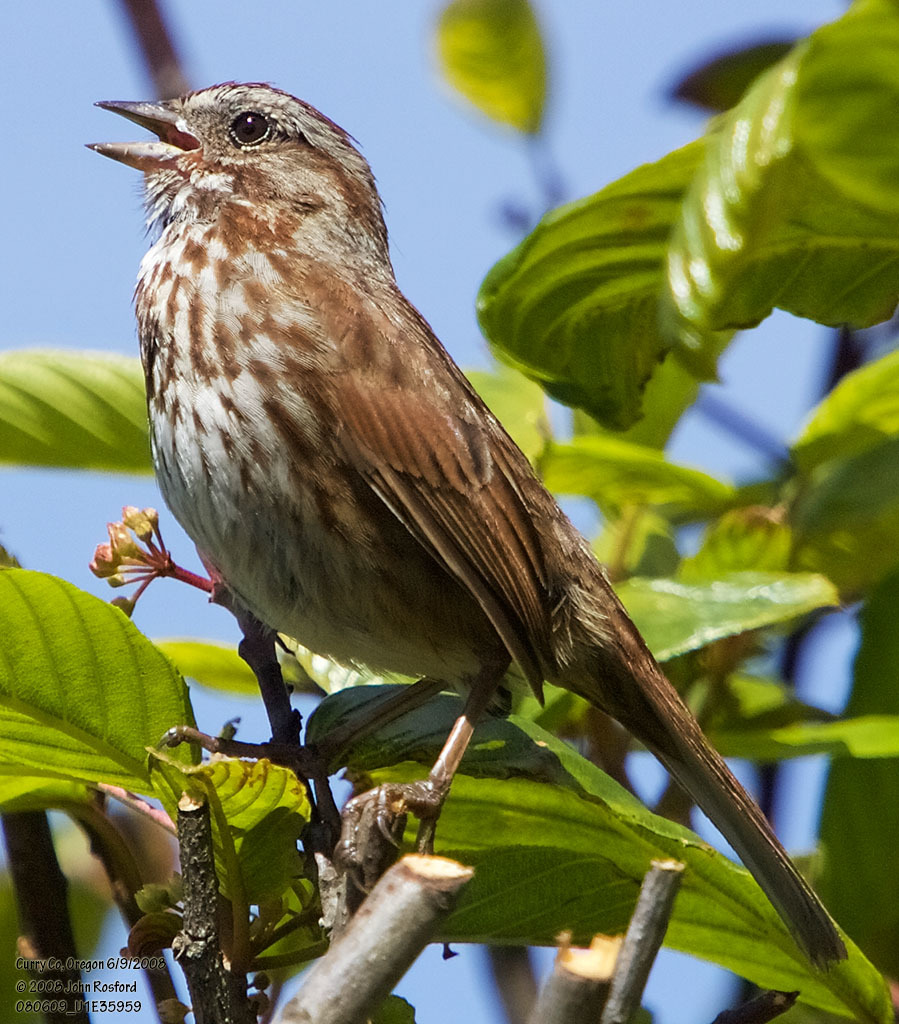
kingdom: Animalia
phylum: Chordata
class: Aves
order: Passeriformes
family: Passerellidae
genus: Melospiza
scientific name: Melospiza melodia
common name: Song sparrow
